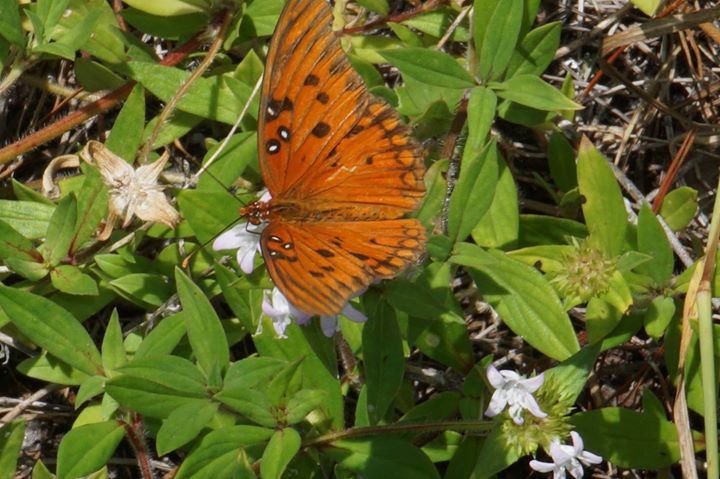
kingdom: Animalia
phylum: Arthropoda
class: Insecta
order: Lepidoptera
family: Nymphalidae
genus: Dione
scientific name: Dione vanillae
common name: Gulf fritillary
